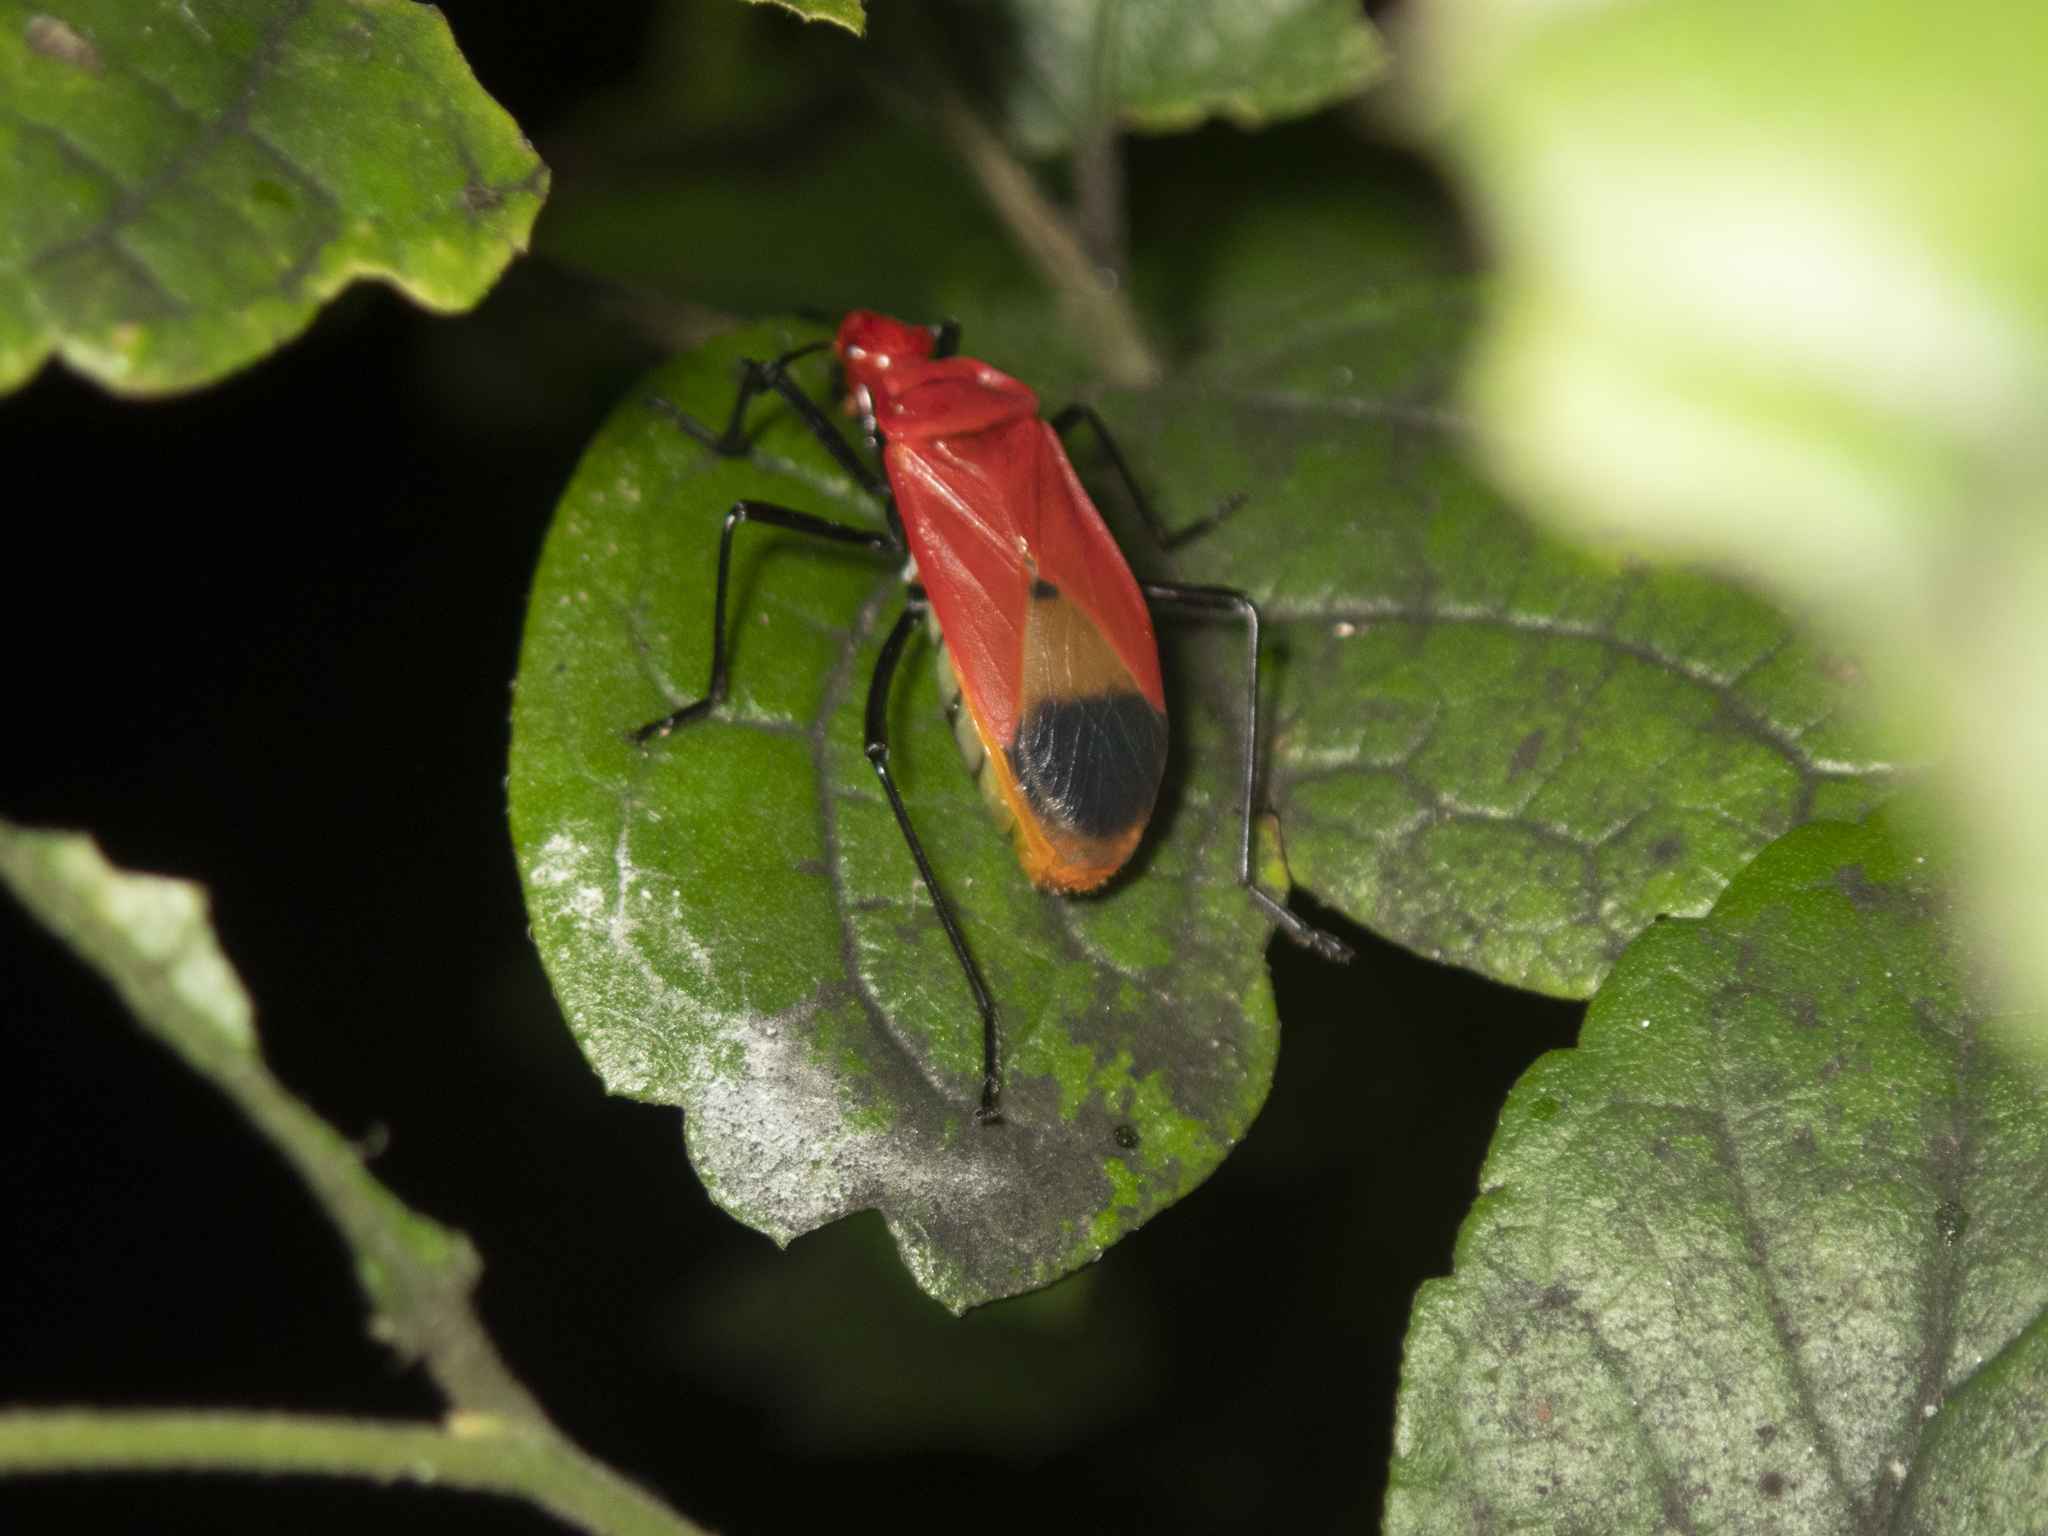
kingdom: Animalia
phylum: Arthropoda
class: Insecta
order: Hemiptera
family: Pyrrhocoridae
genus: Dindymus
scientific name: Dindymus
